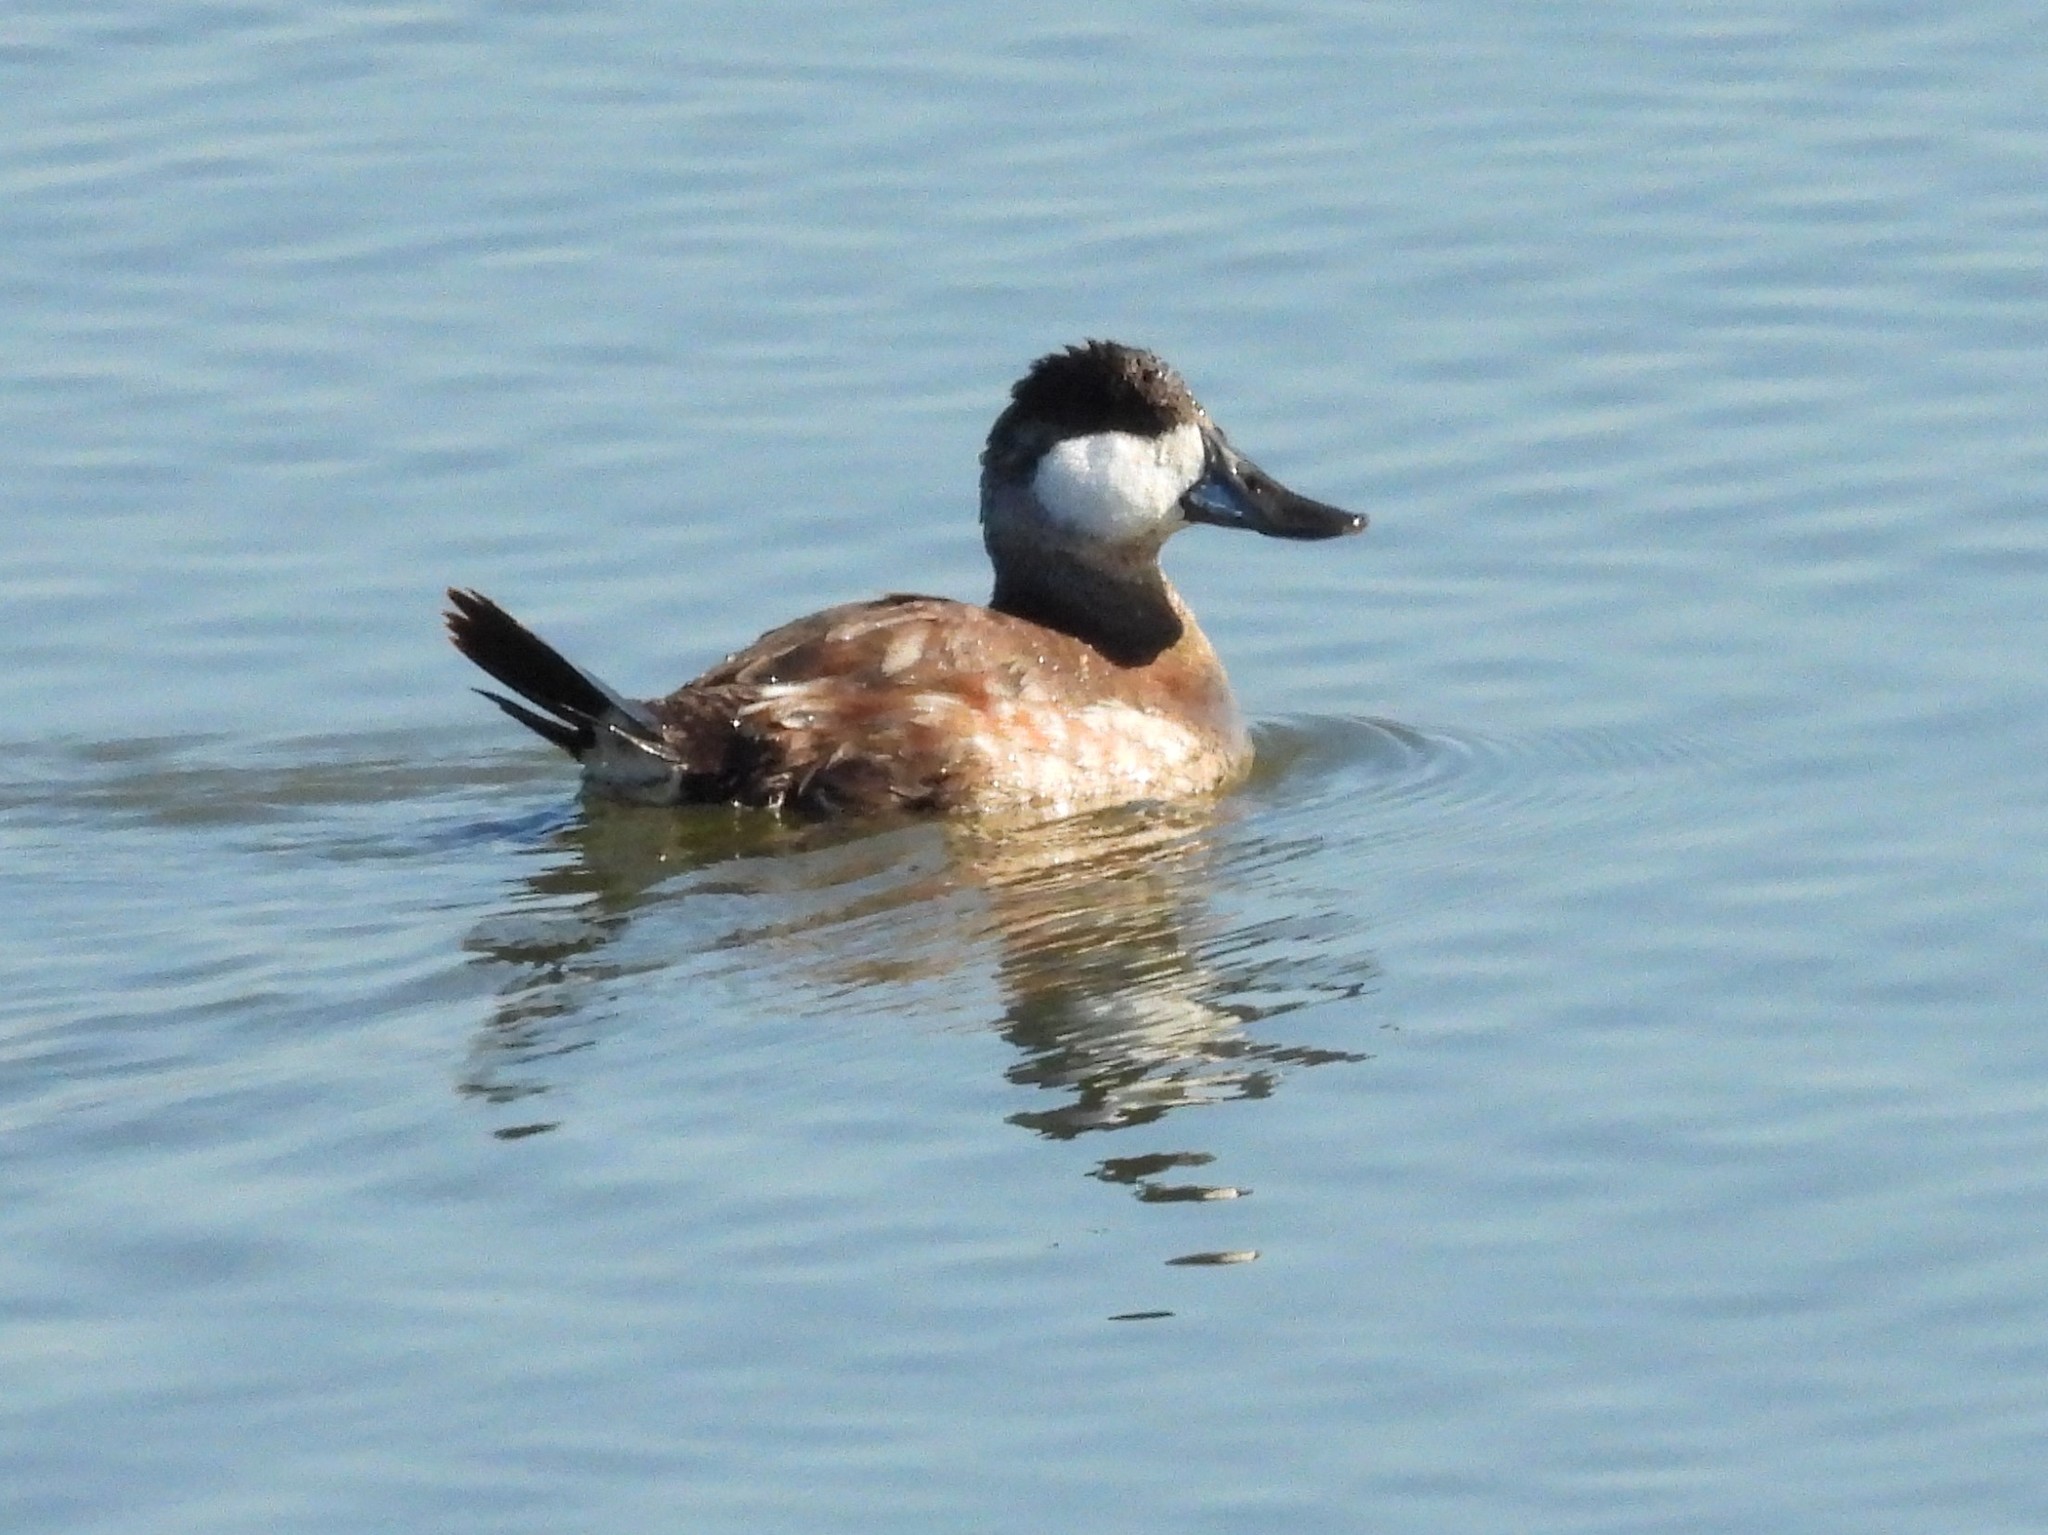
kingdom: Animalia
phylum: Chordata
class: Aves
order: Anseriformes
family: Anatidae
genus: Oxyura
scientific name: Oxyura jamaicensis
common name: Ruddy duck
